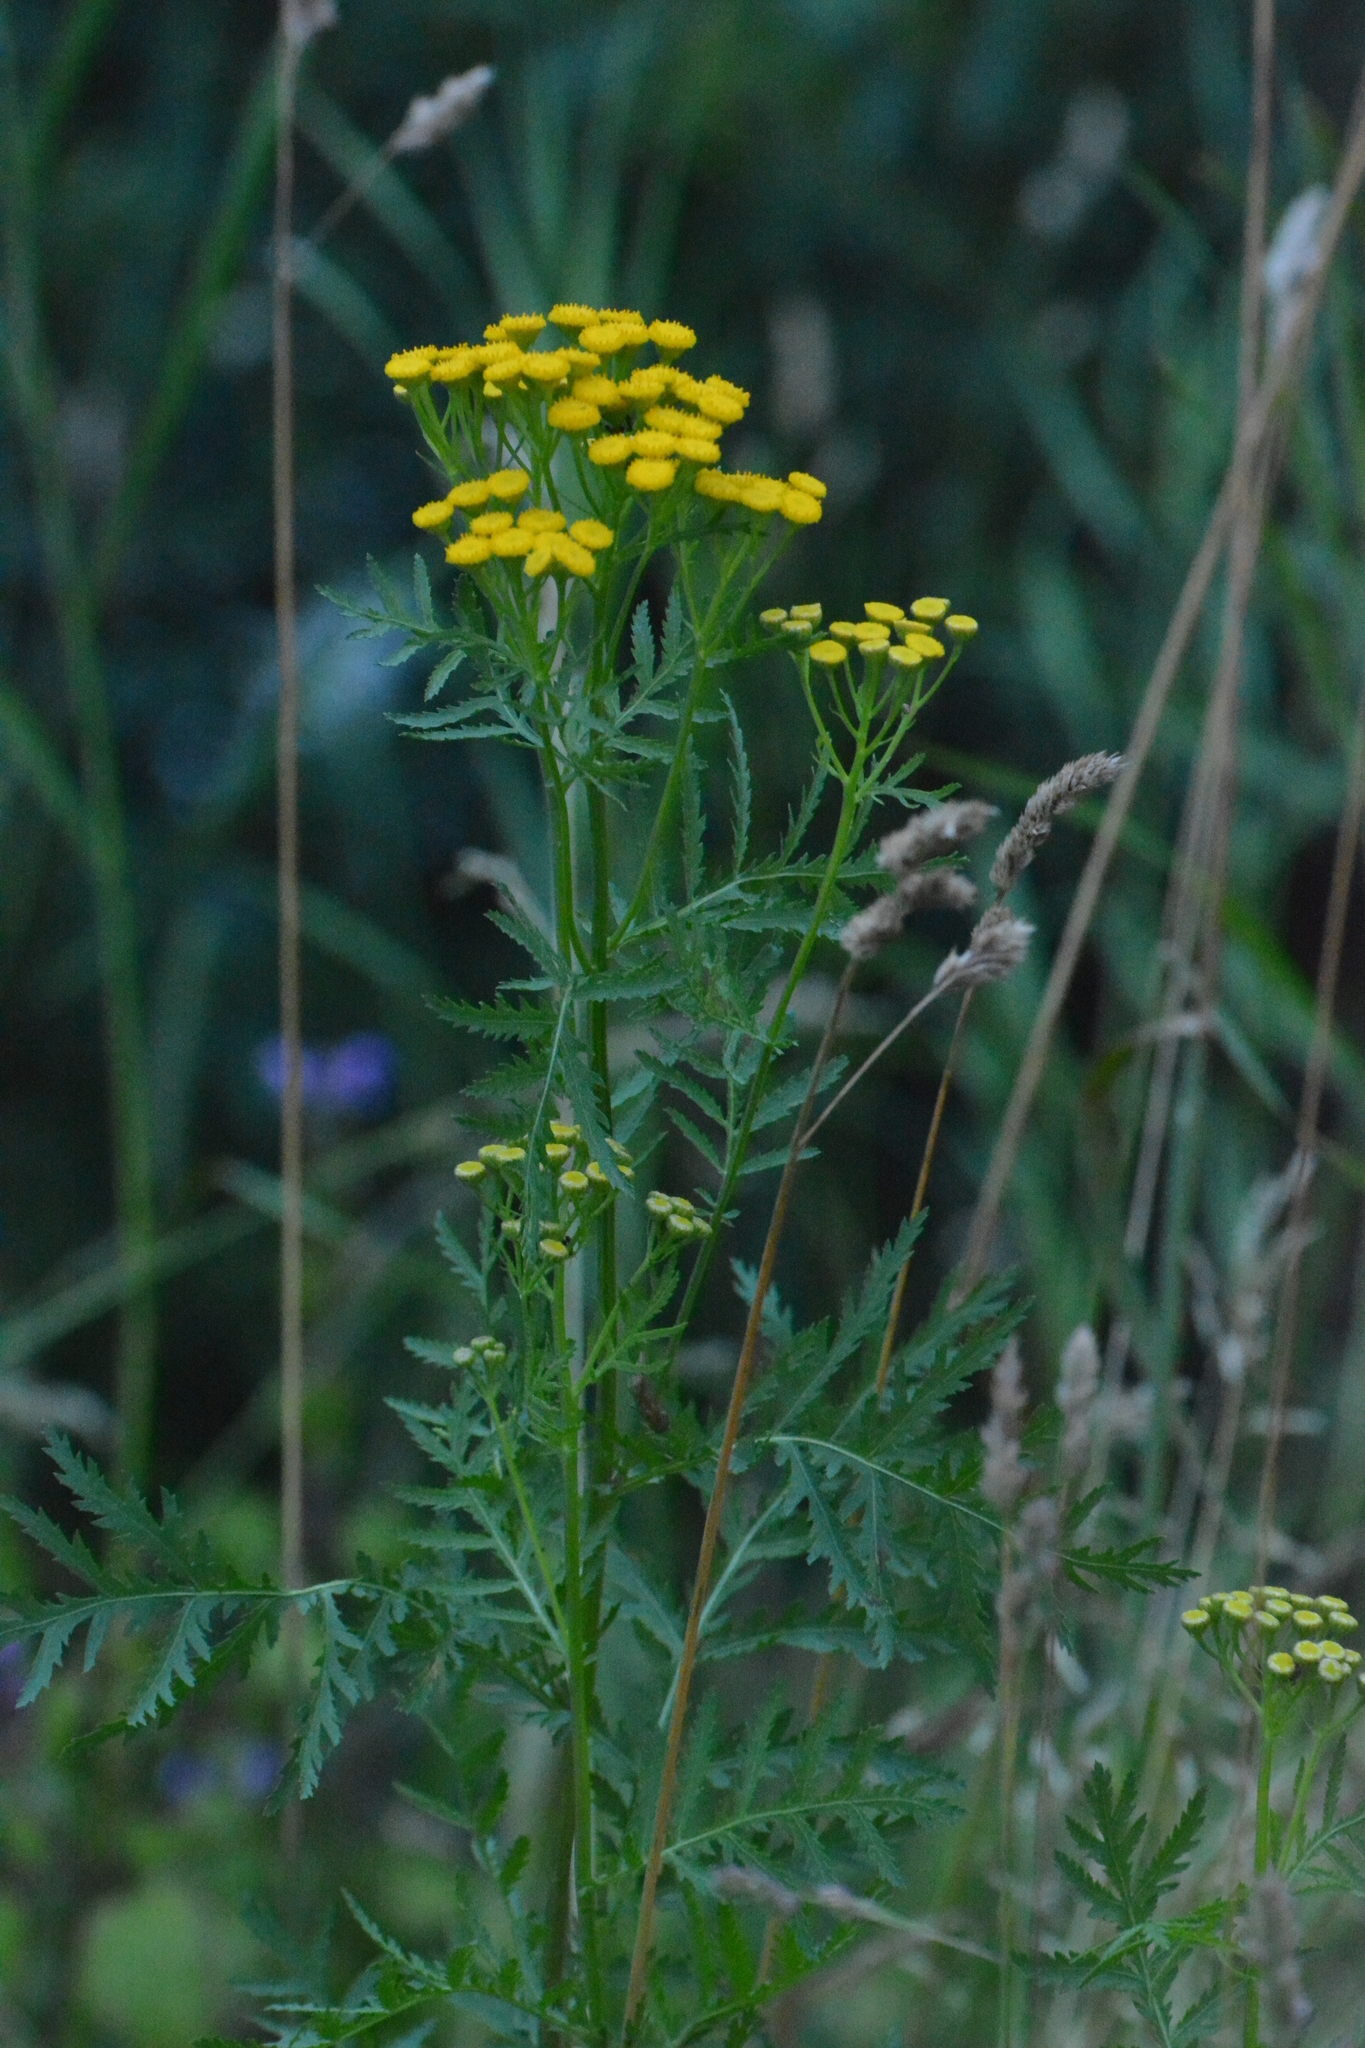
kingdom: Plantae
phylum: Tracheophyta
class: Magnoliopsida
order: Asterales
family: Asteraceae
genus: Tanacetum
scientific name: Tanacetum vulgare
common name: Common tansy
